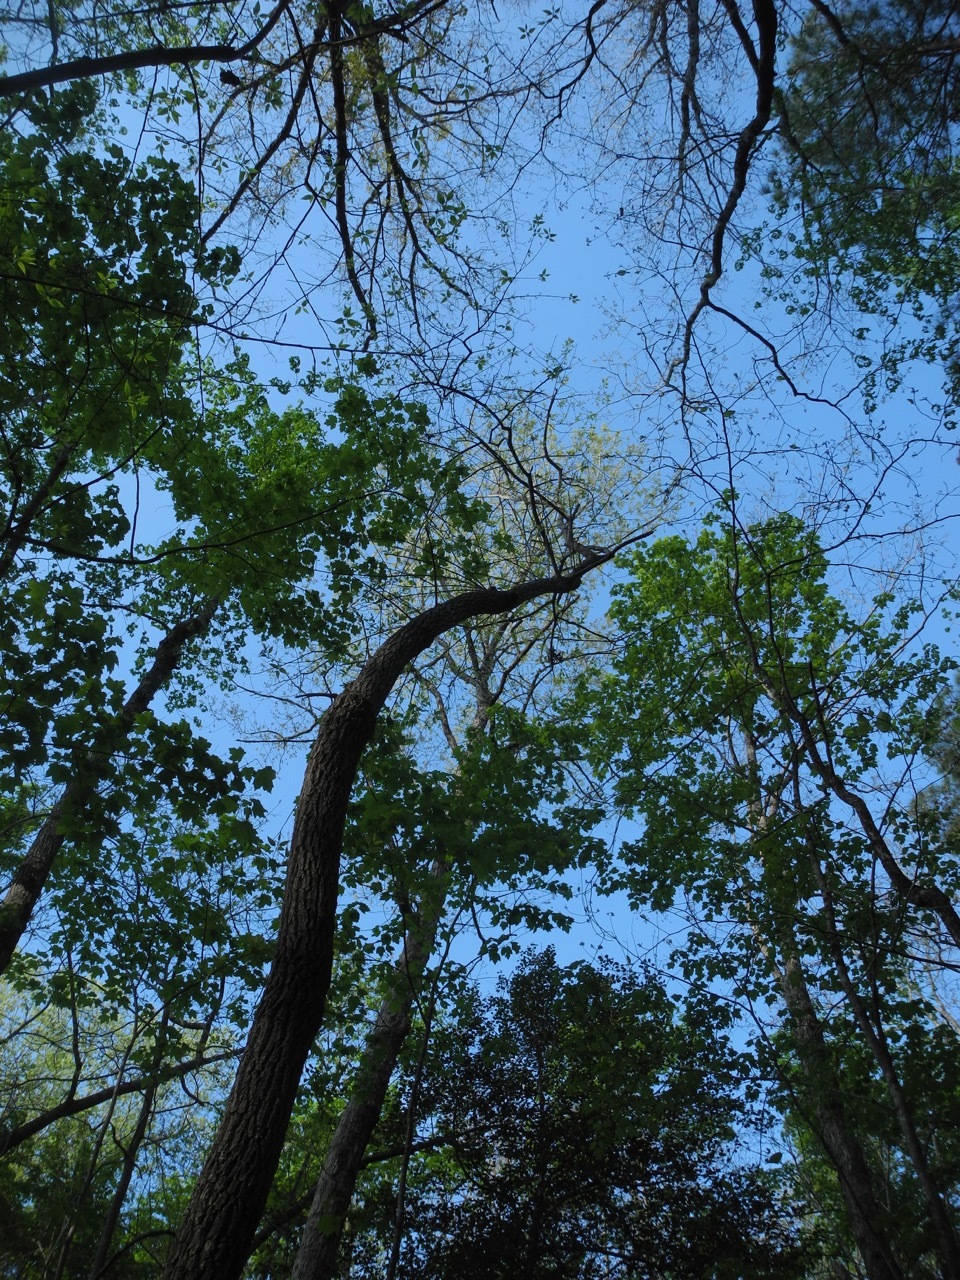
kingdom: Plantae
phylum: Tracheophyta
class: Magnoliopsida
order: Ericales
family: Ericaceae
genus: Oxydendrum
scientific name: Oxydendrum arboreum
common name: Sourwood
